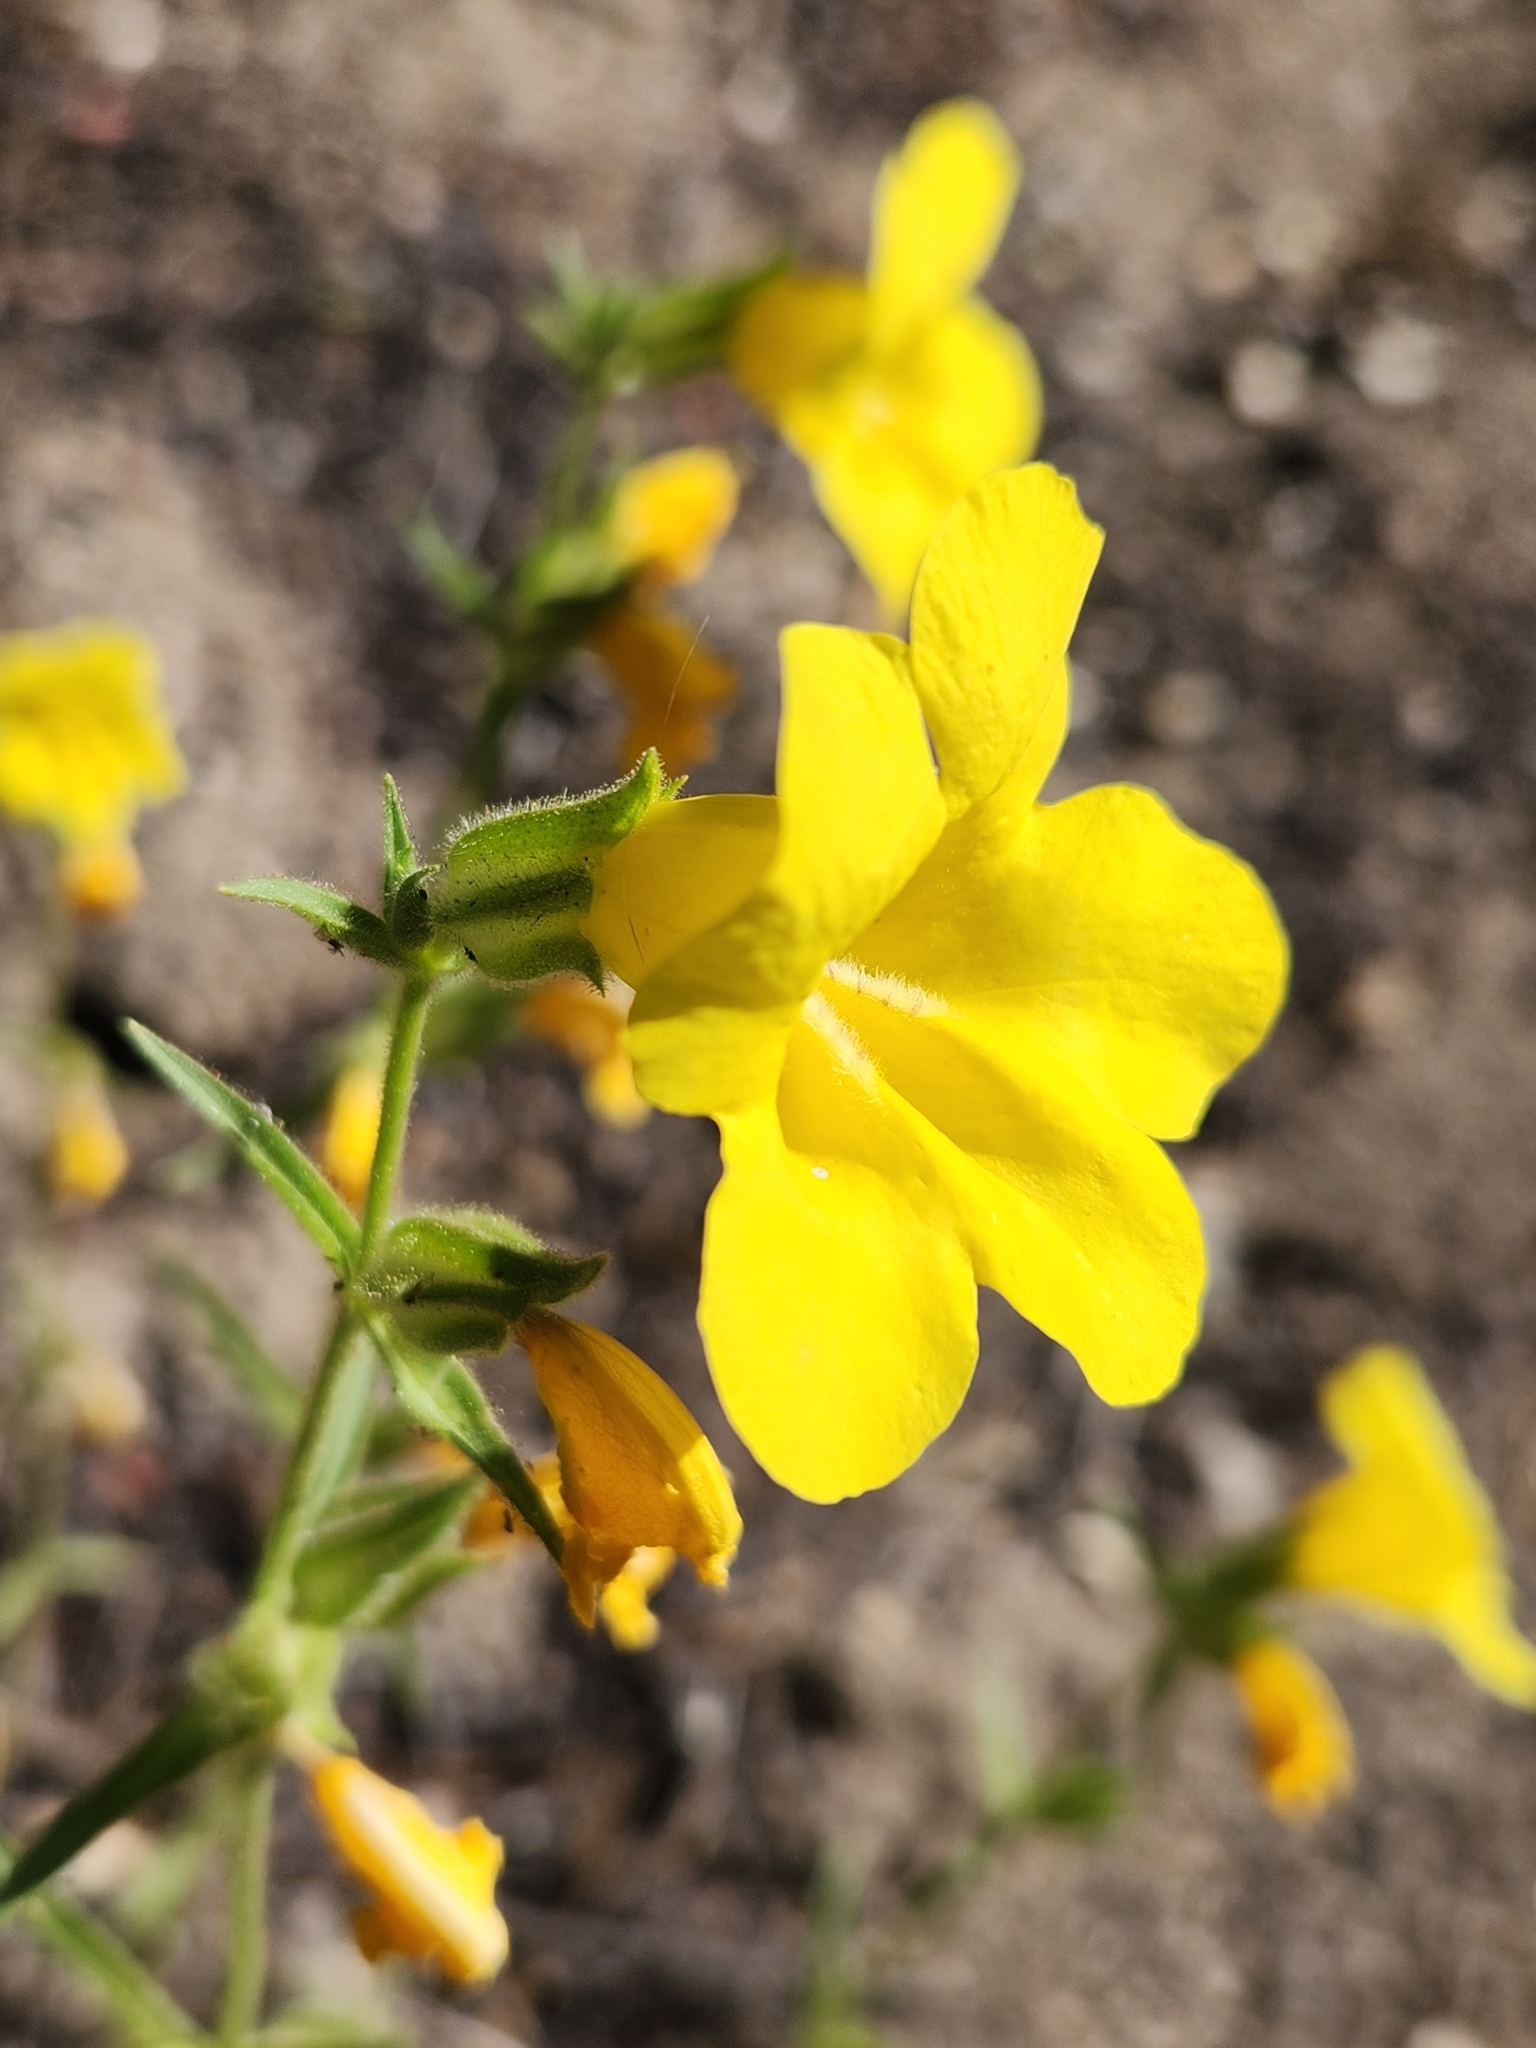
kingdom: Plantae
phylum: Tracheophyta
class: Magnoliopsida
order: Lamiales
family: Phrymaceae
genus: Diplacus
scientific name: Diplacus brevipes
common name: Wide-throat yellow monkey-flower
